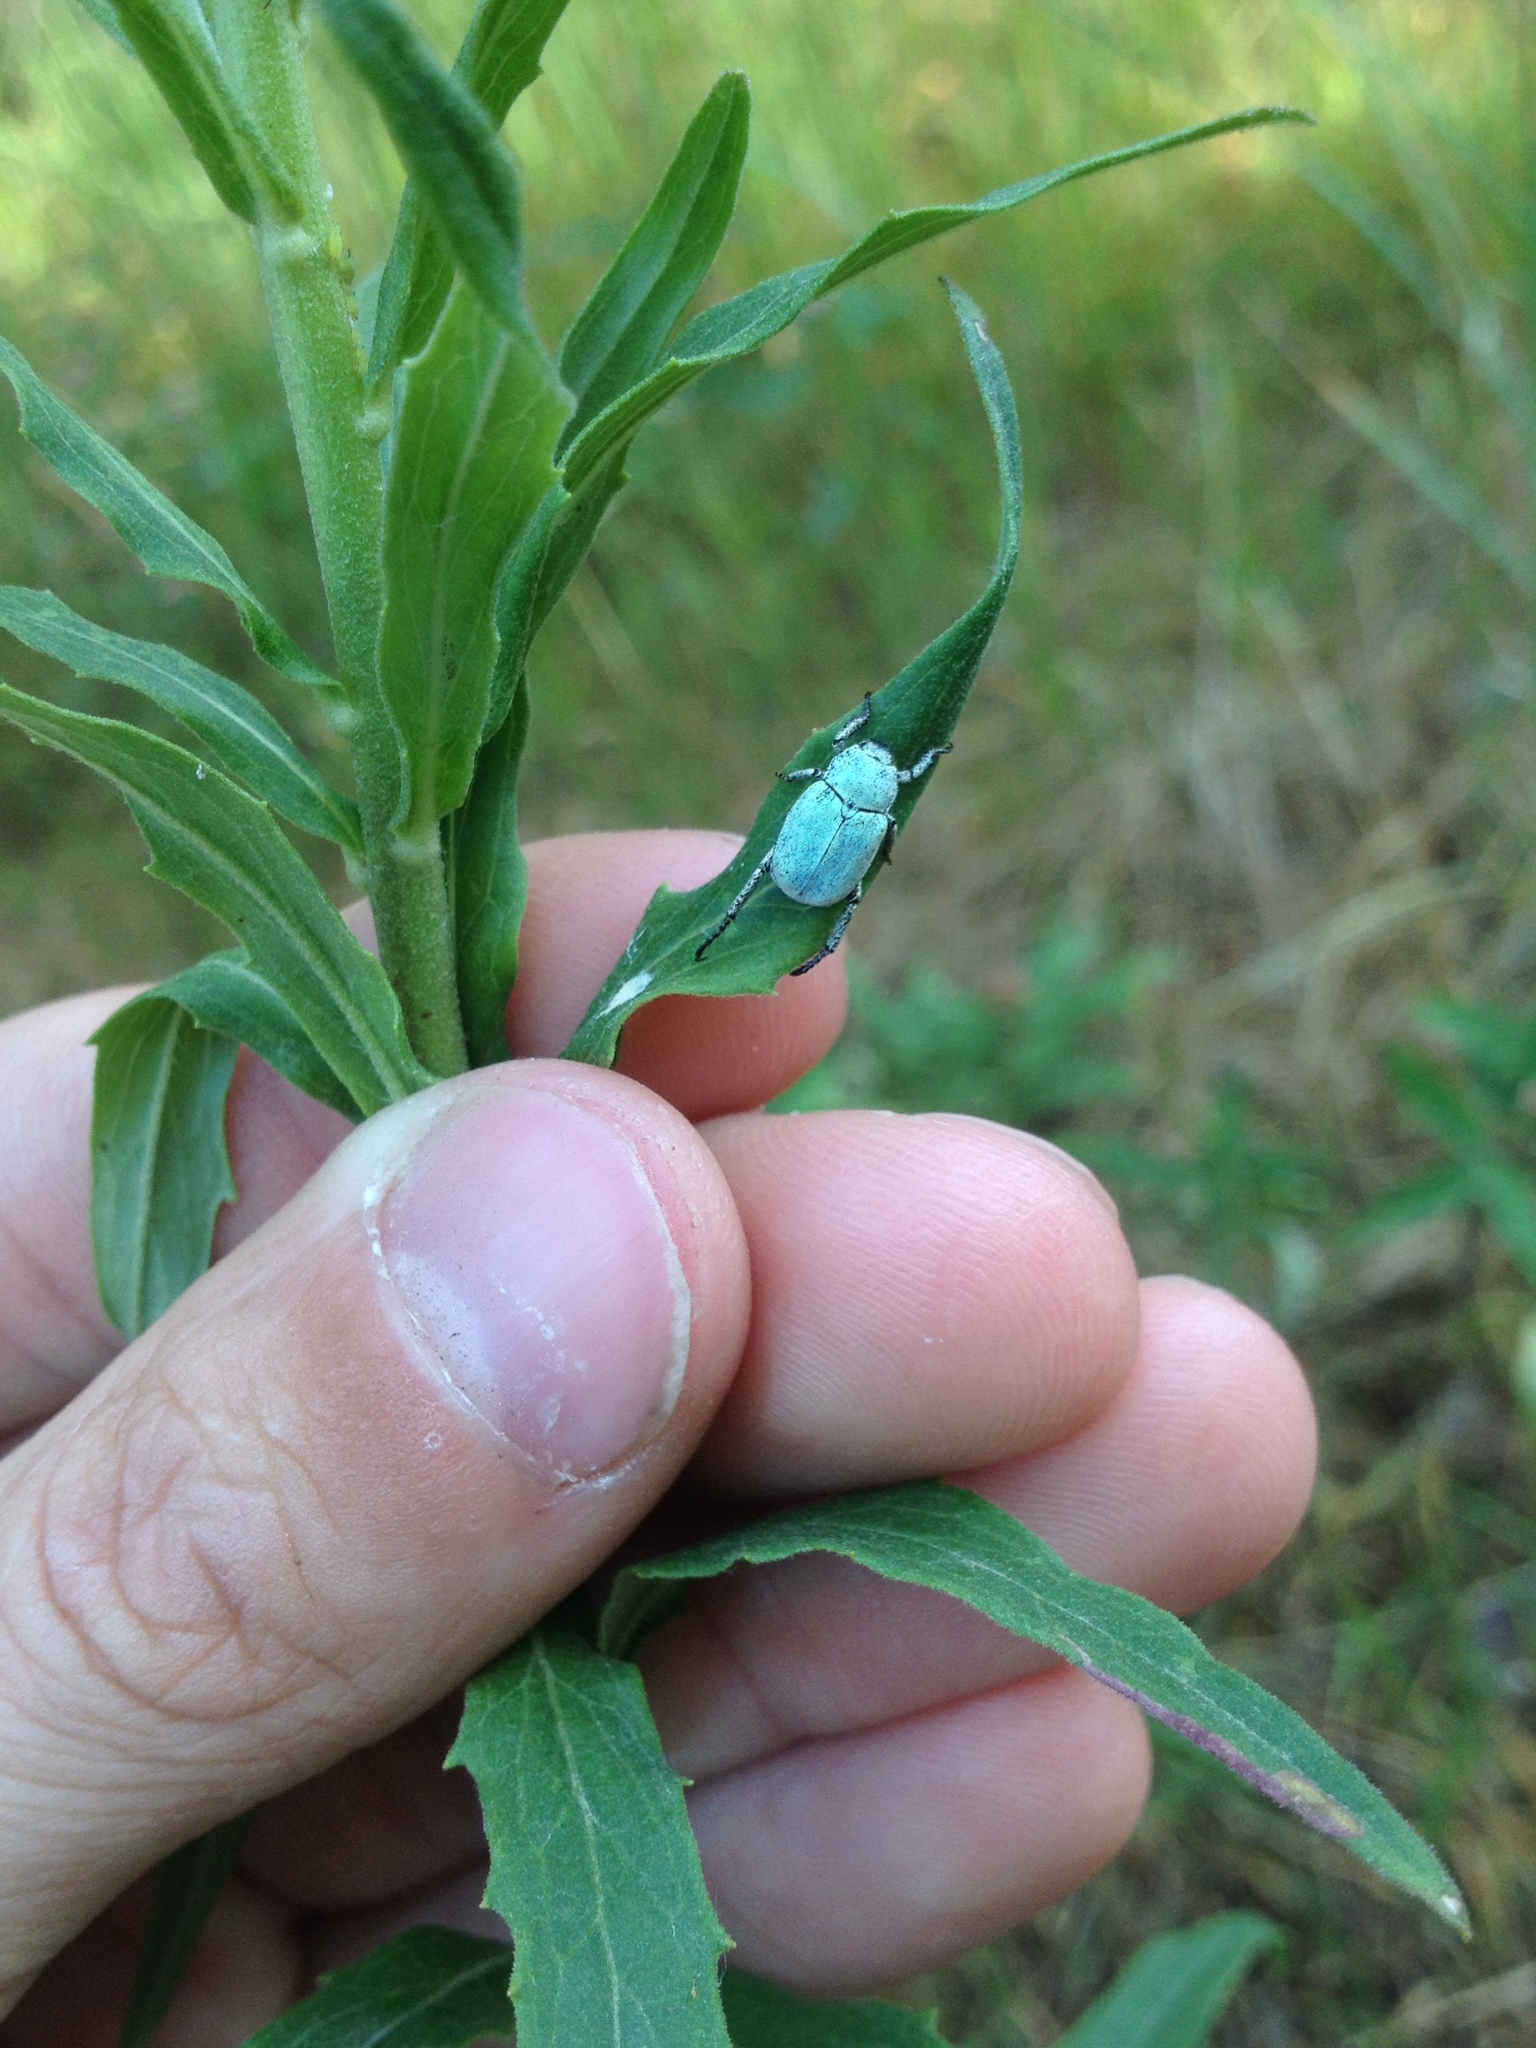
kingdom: Animalia
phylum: Arthropoda
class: Insecta
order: Coleoptera
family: Scarabaeidae
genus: Hoplia
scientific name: Hoplia parvula
